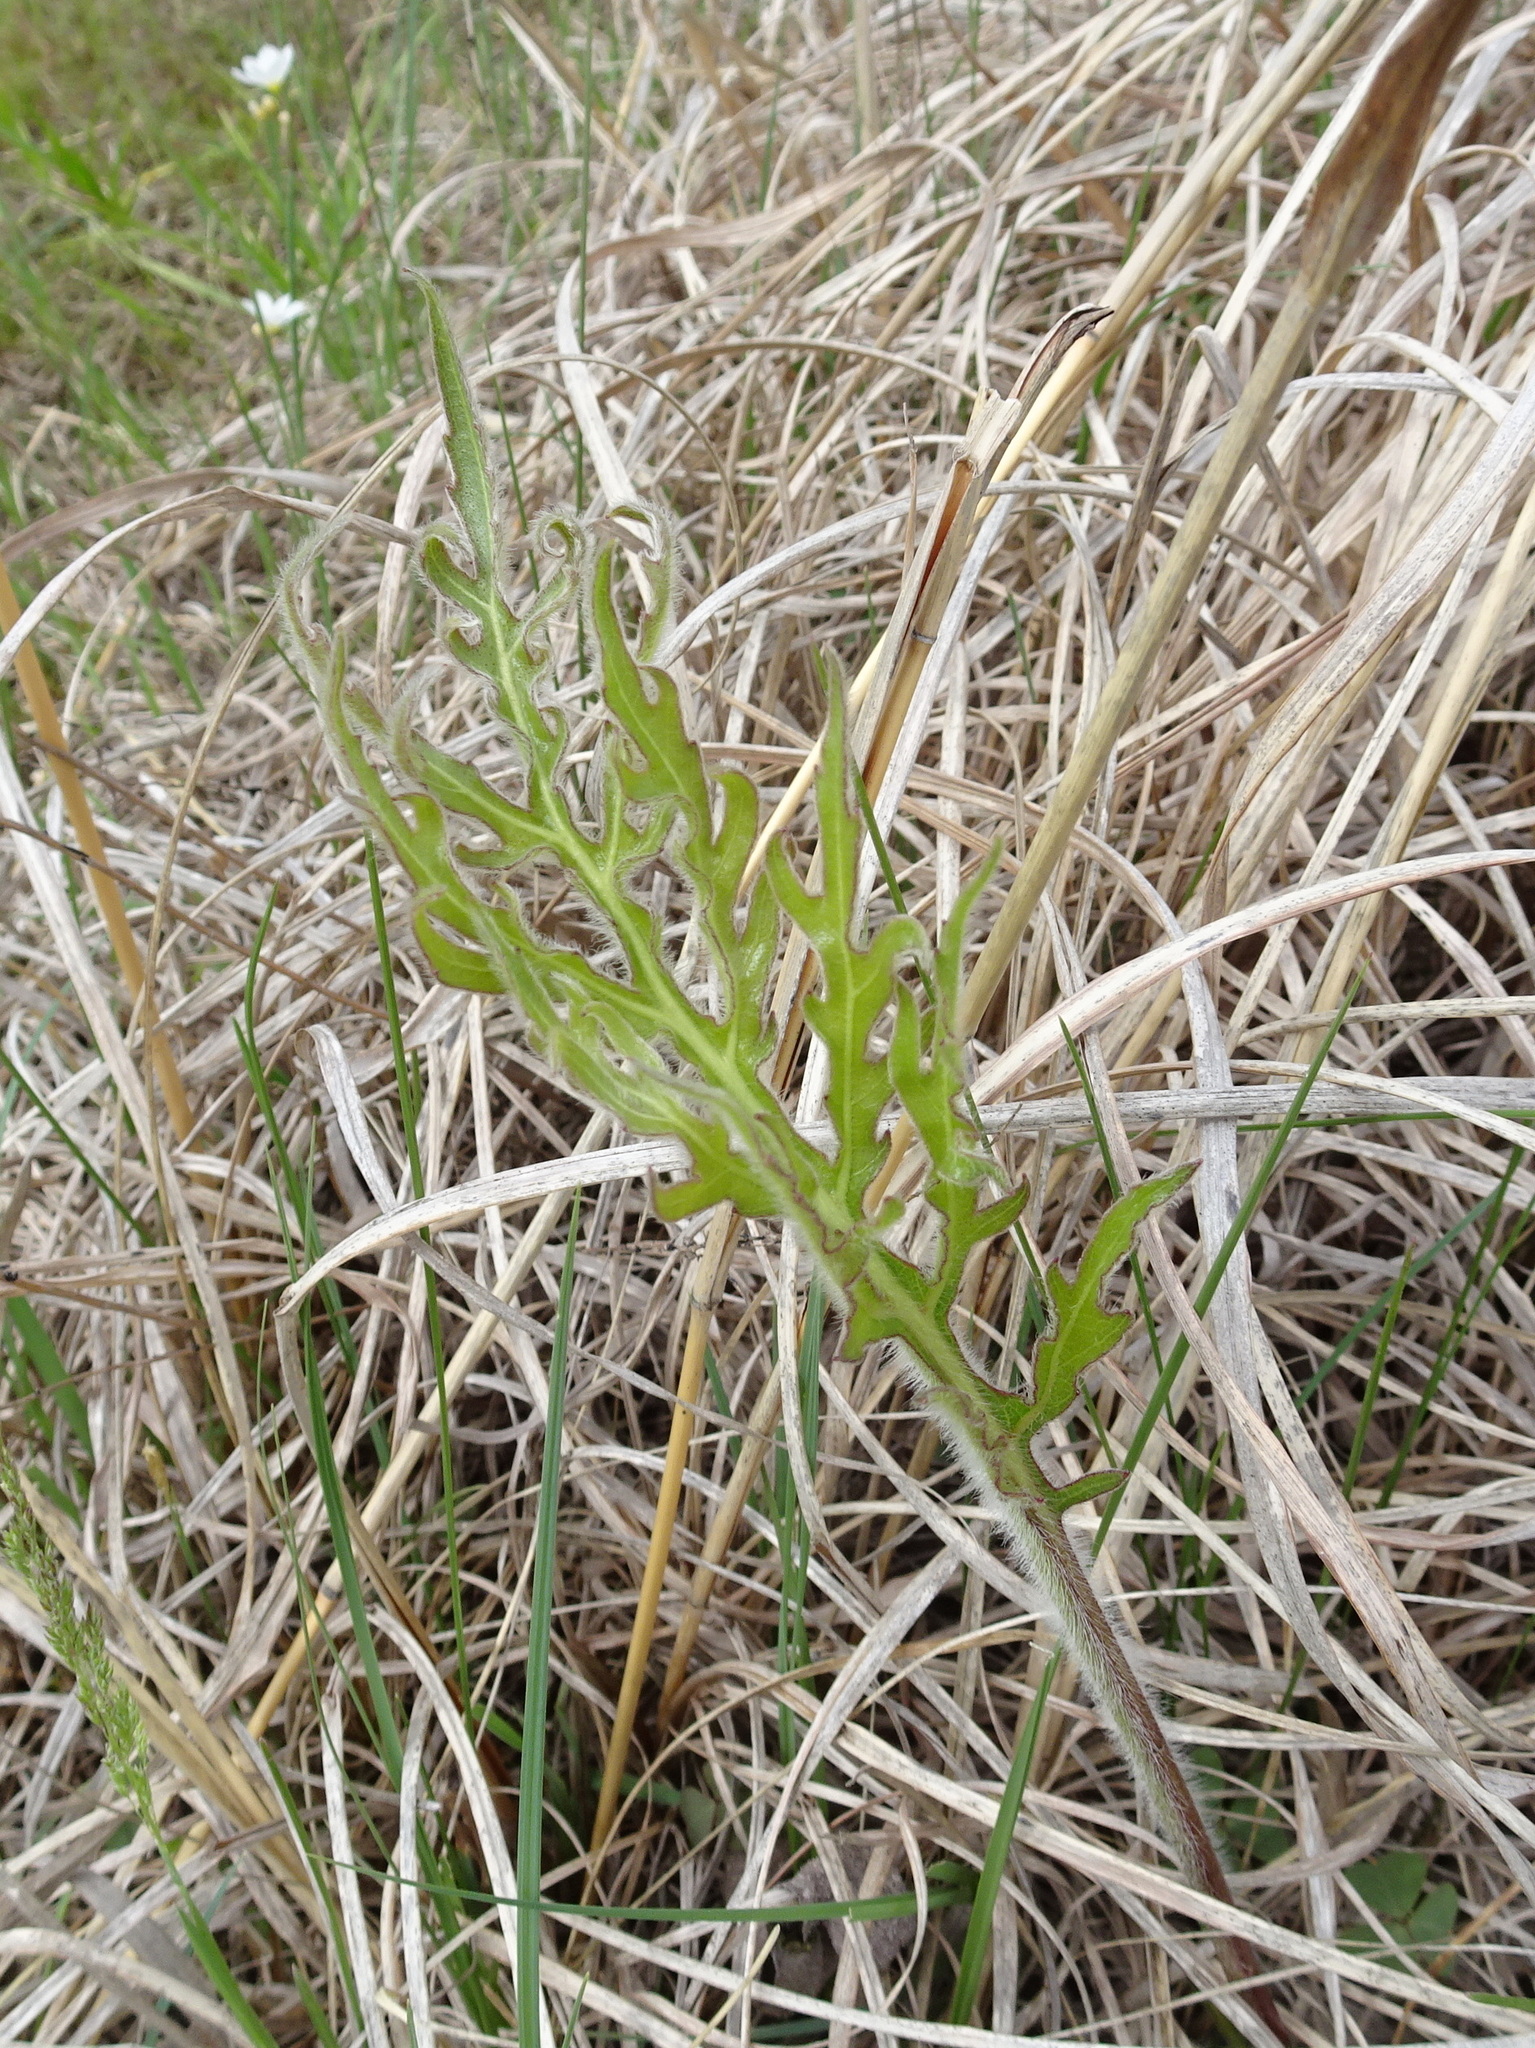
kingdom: Plantae
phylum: Tracheophyta
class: Magnoliopsida
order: Asterales
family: Asteraceae
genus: Silphium
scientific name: Silphium laciniatum
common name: Polarplant
